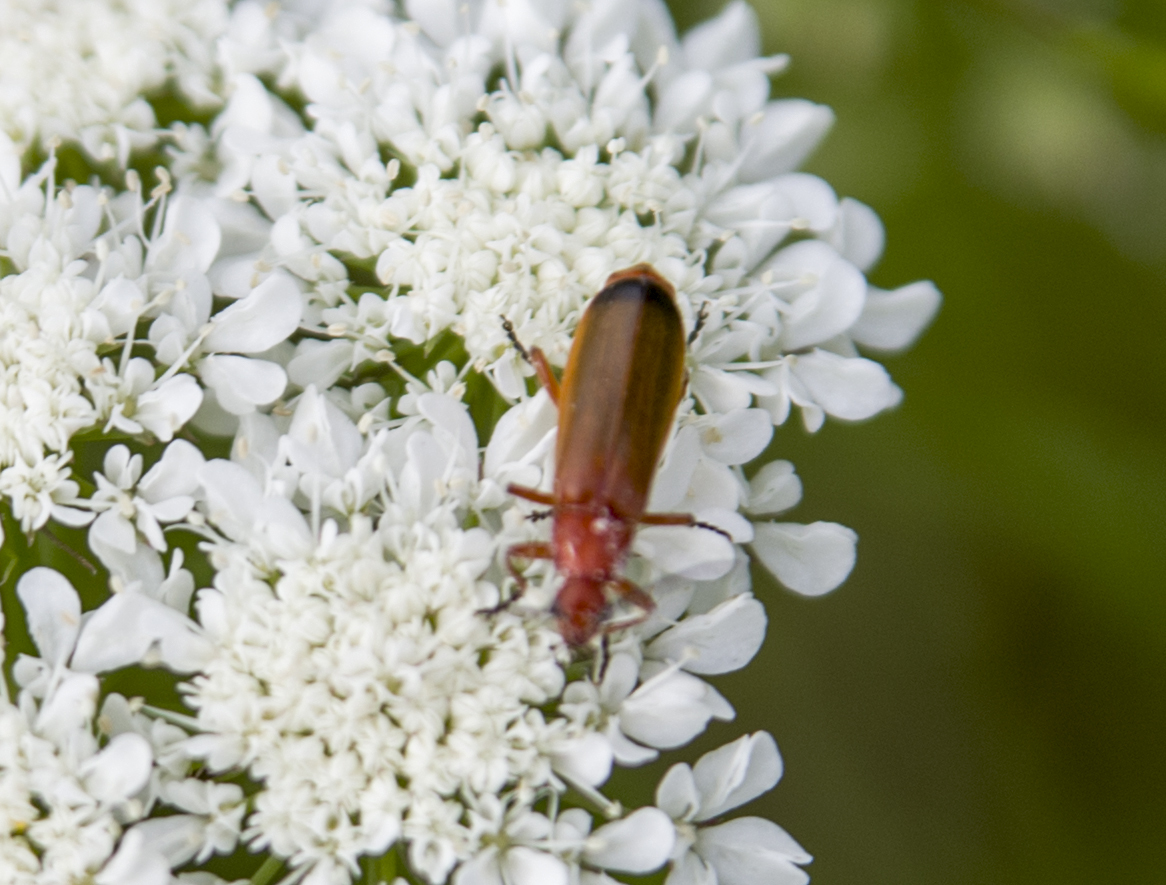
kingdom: Animalia
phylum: Arthropoda
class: Insecta
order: Coleoptera
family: Cantharidae
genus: Rhagonycha
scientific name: Rhagonycha fulva
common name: Common red soldier beetle
